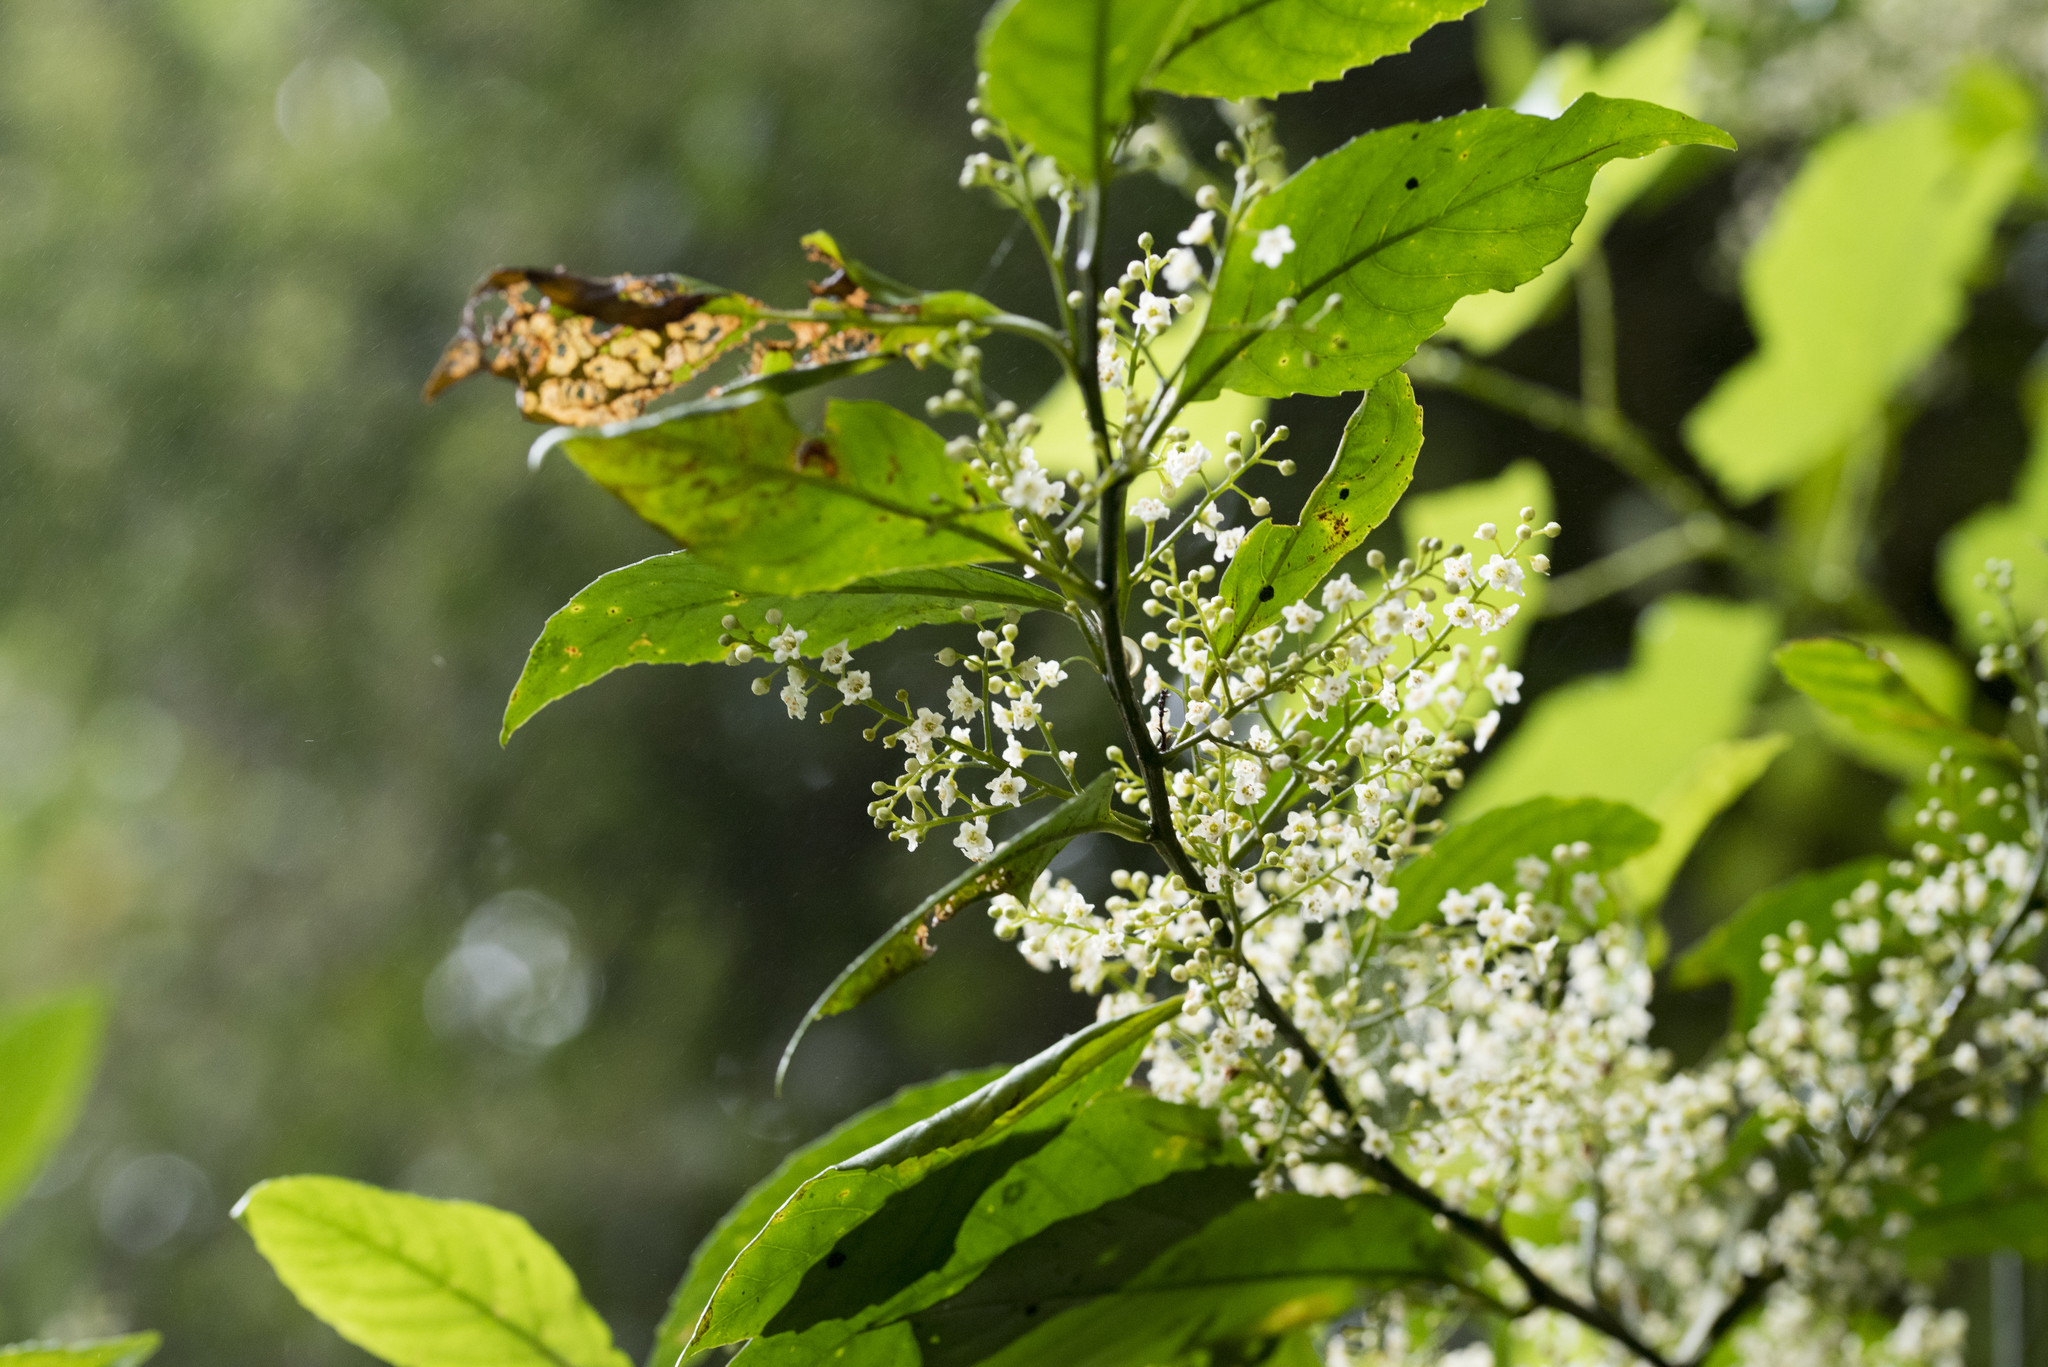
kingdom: Plantae
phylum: Tracheophyta
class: Magnoliopsida
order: Ericales
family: Primulaceae
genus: Maesa
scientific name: Maesa perlaria
